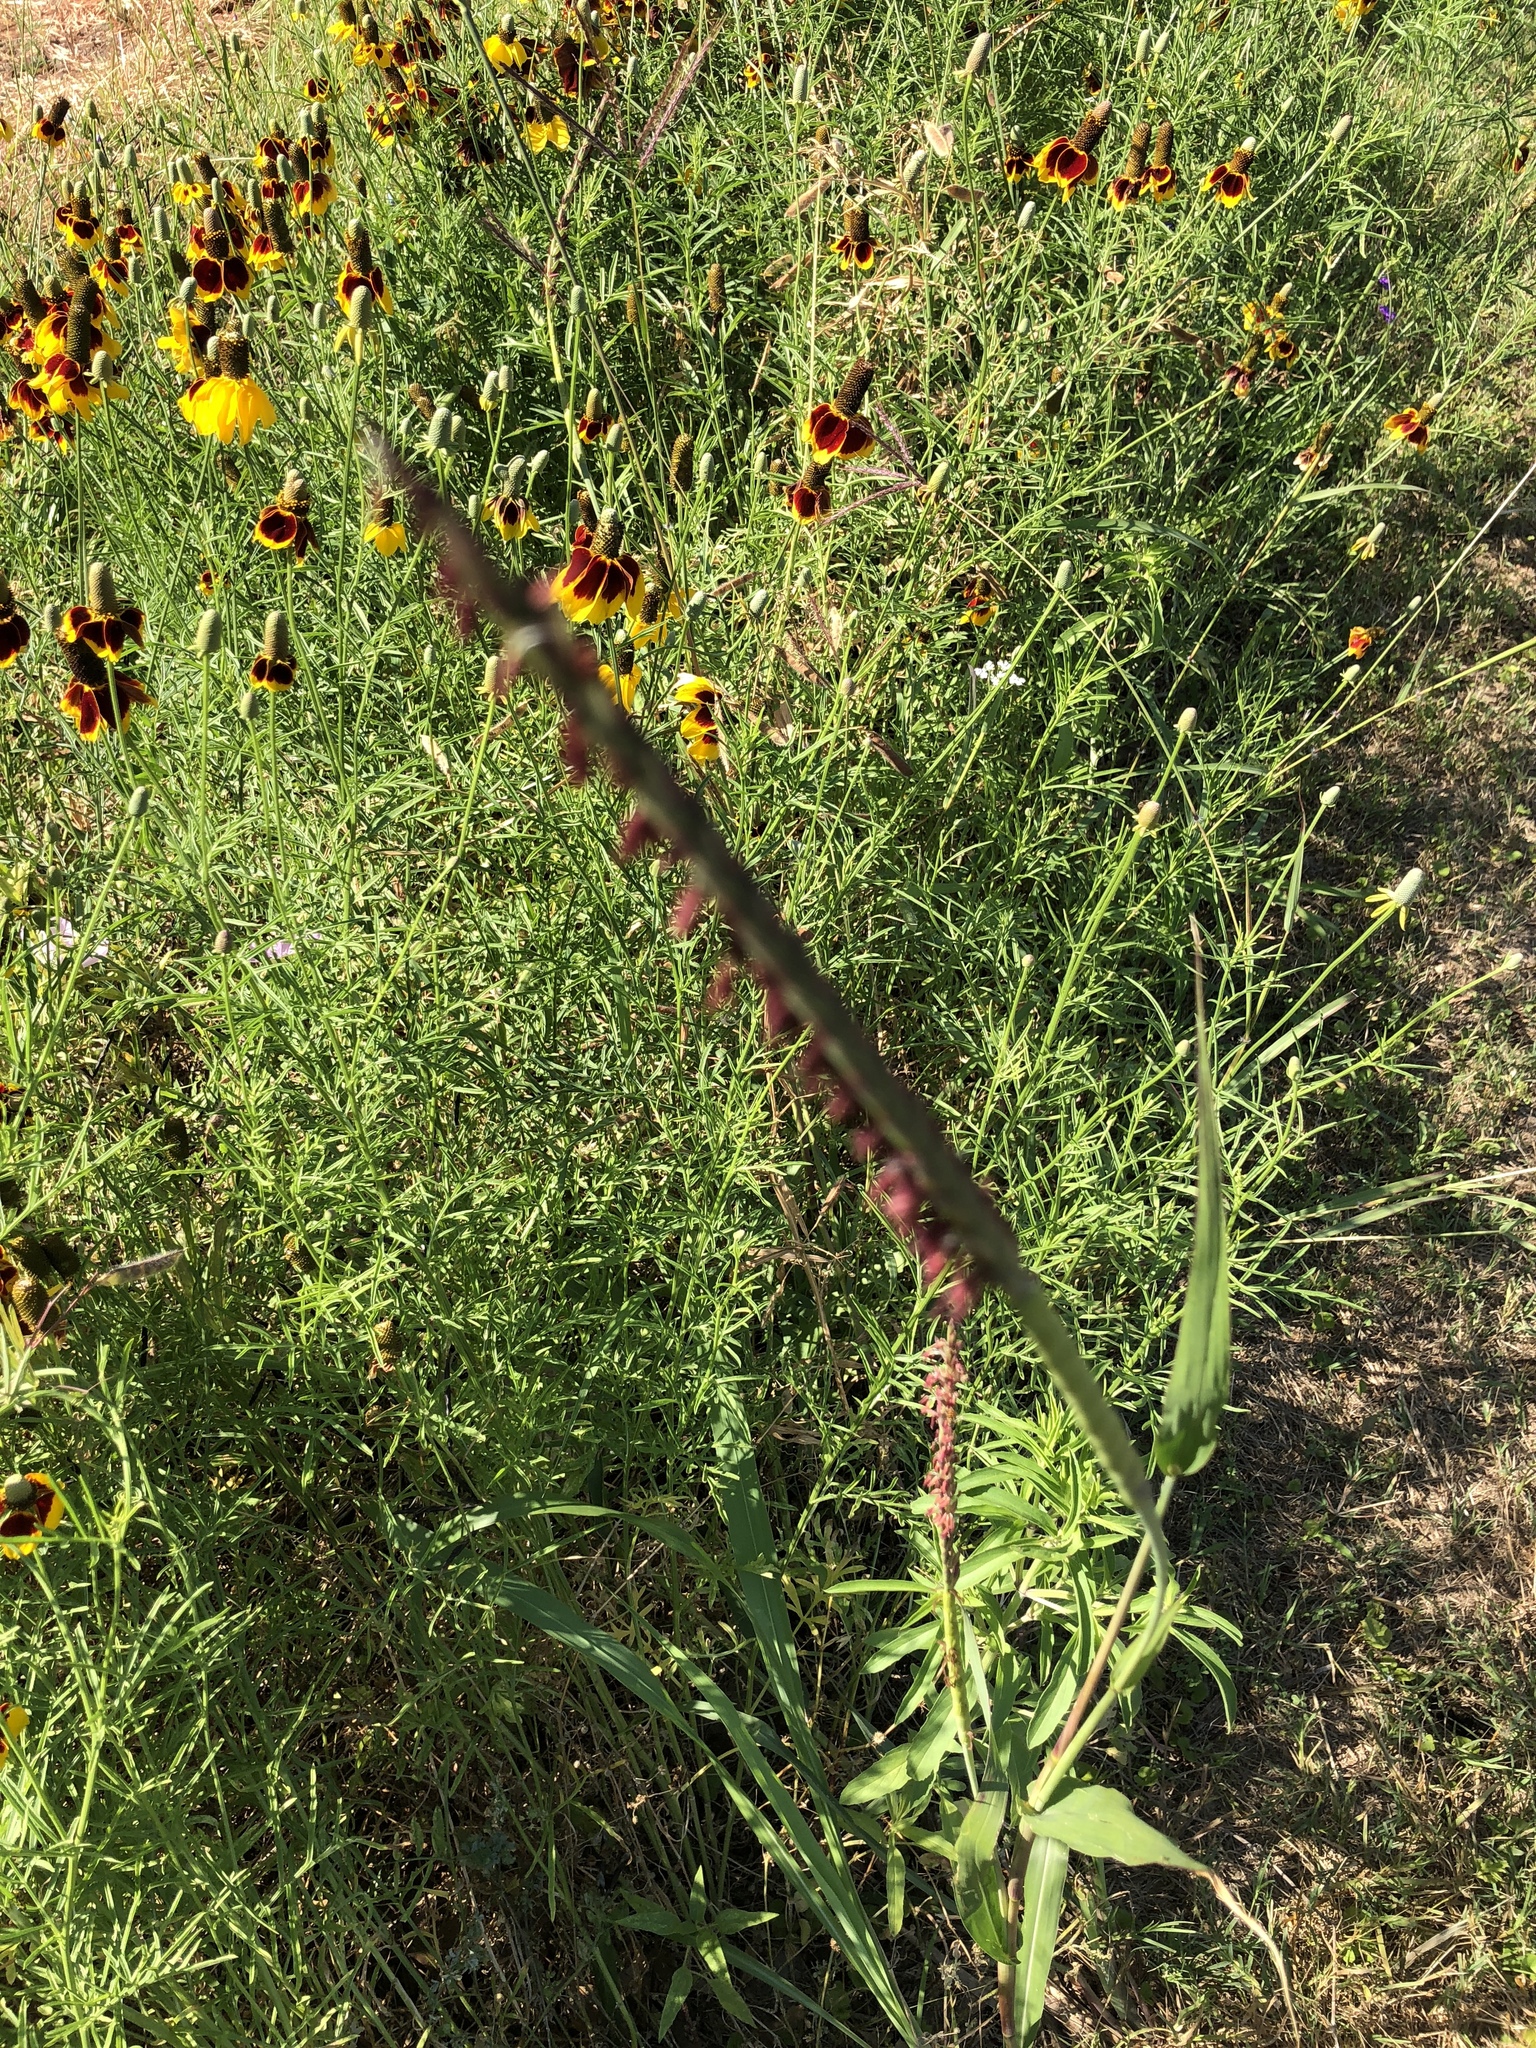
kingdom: Plantae
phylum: Tracheophyta
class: Magnoliopsida
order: Asterales
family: Asteraceae
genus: Ratibida
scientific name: Ratibida columnifera
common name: Prairie coneflower
